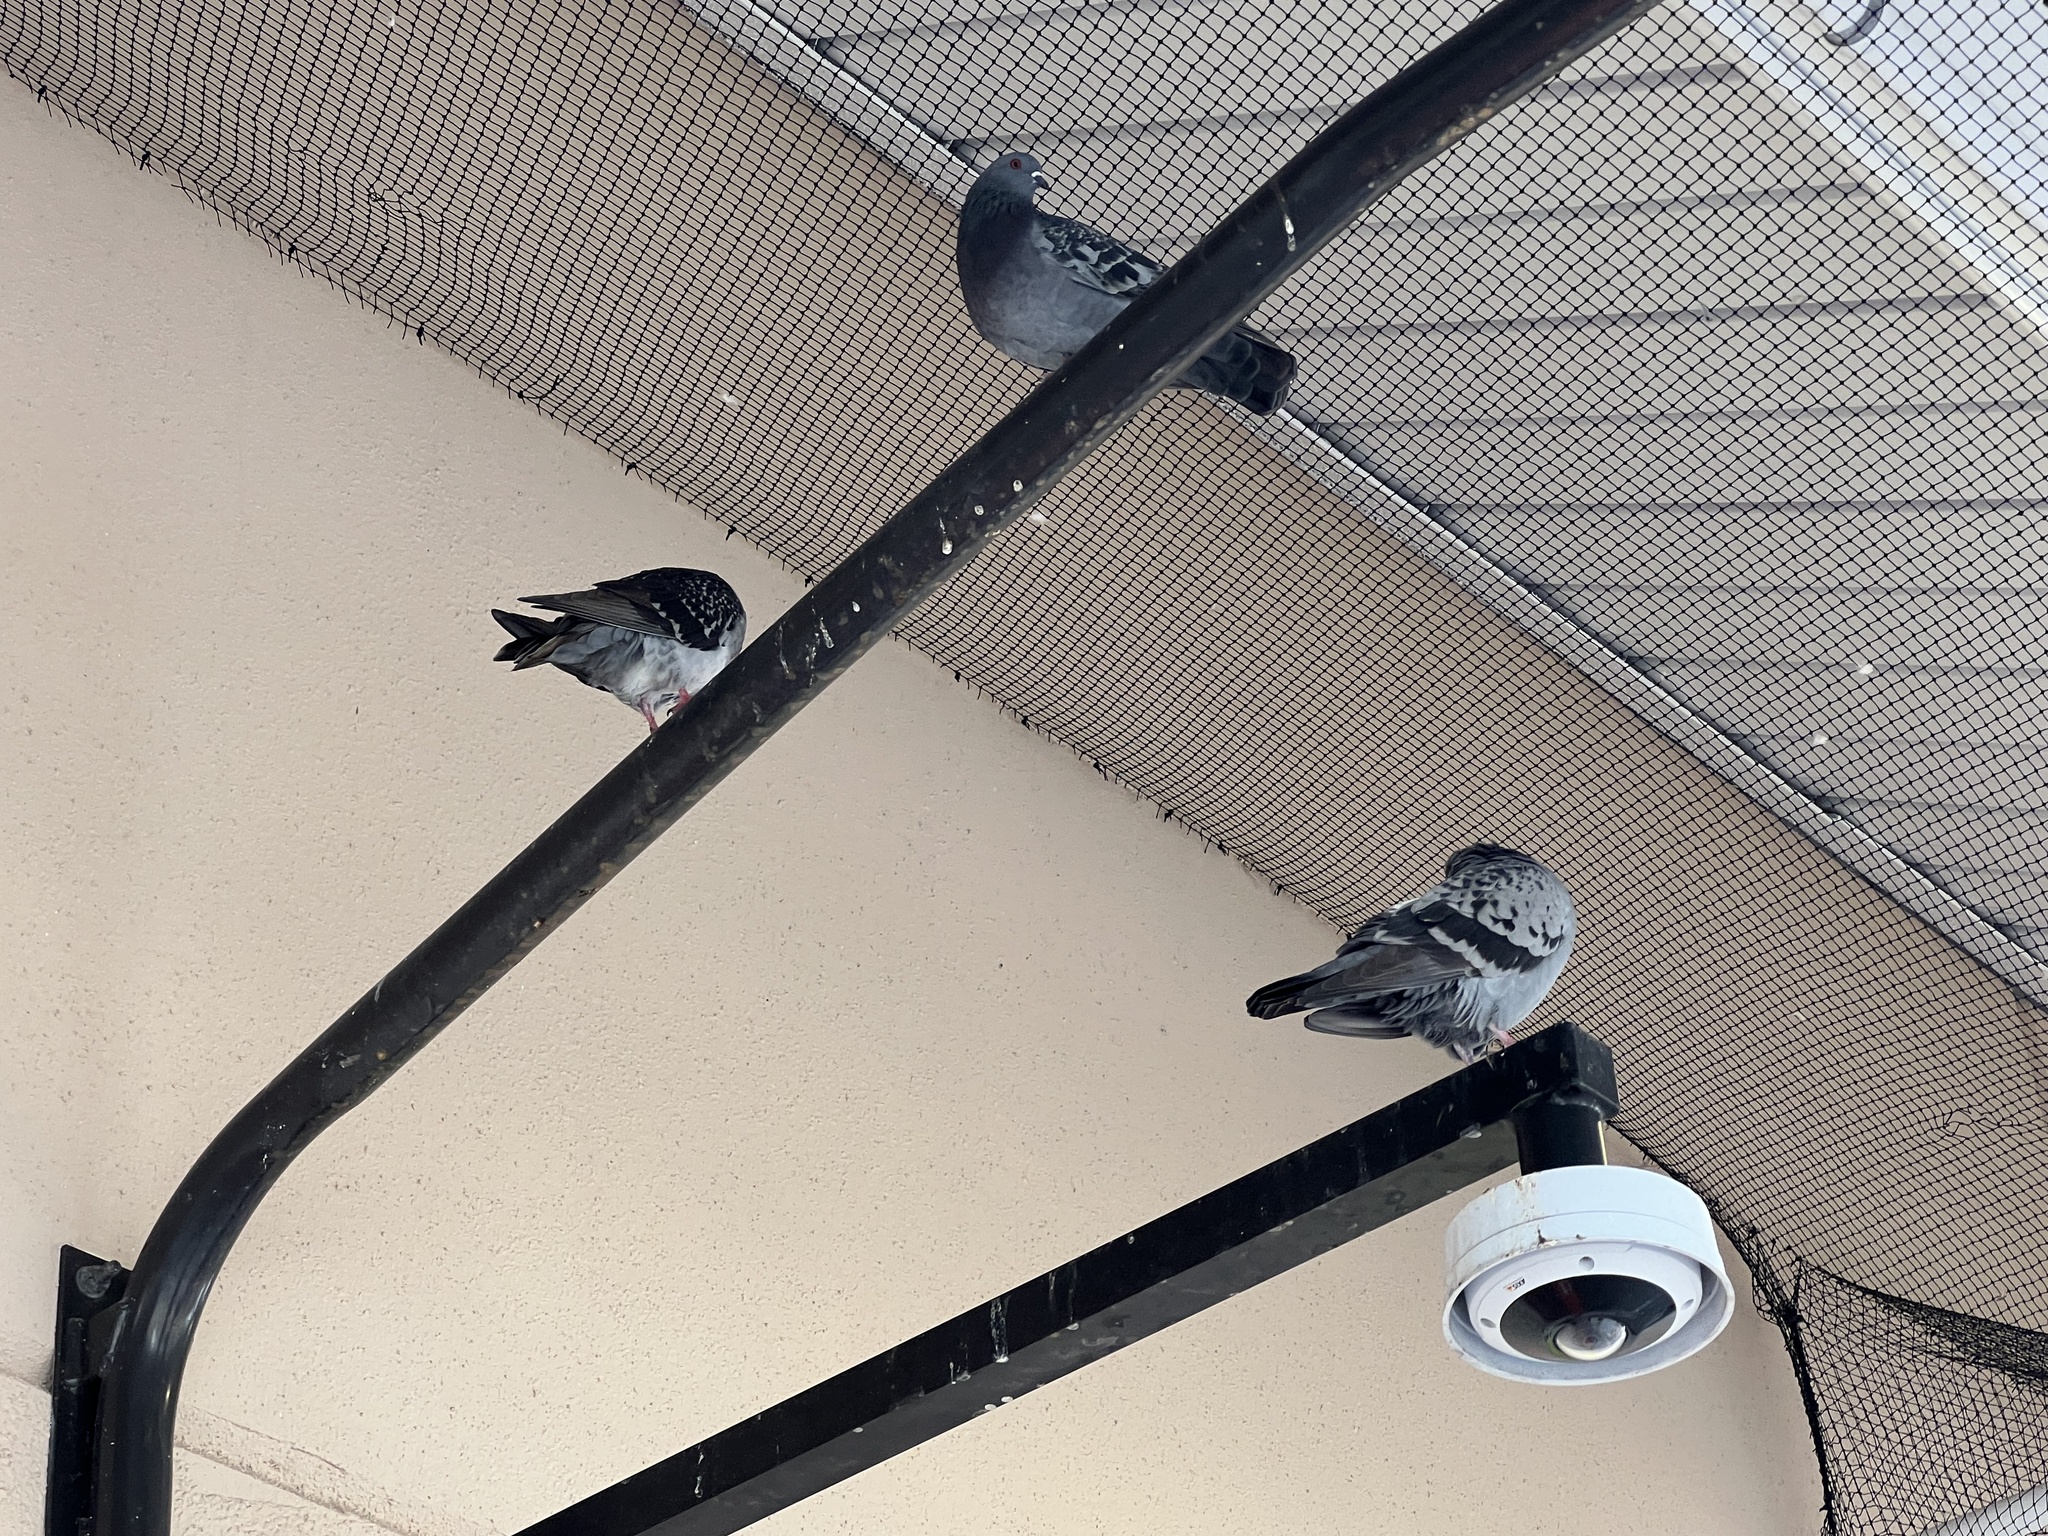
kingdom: Animalia
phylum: Chordata
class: Aves
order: Columbiformes
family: Columbidae
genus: Columba
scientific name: Columba livia
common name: Rock pigeon
